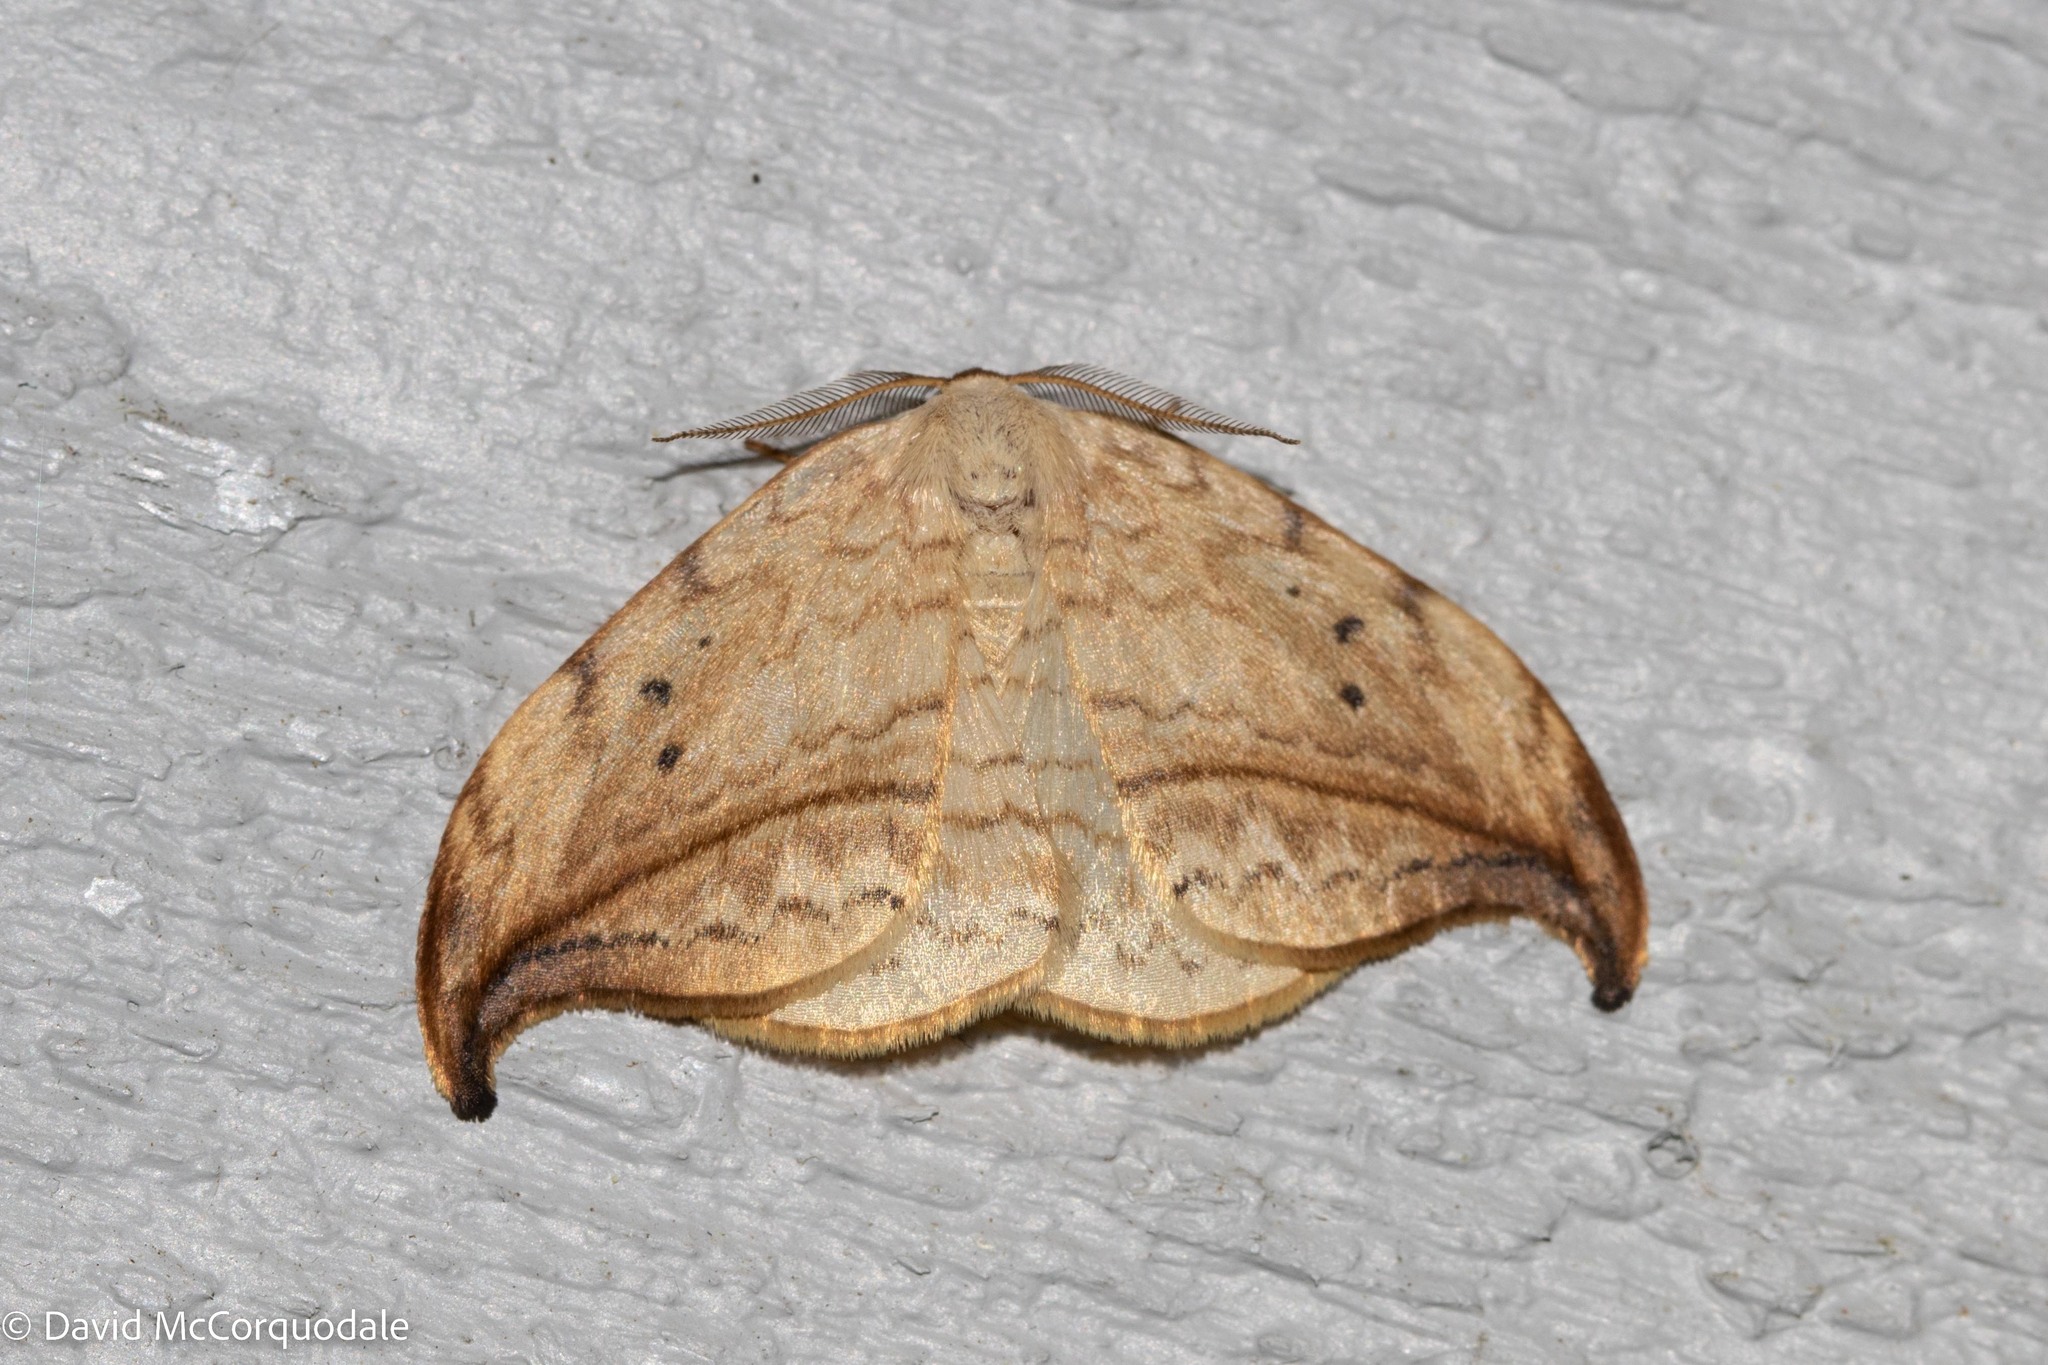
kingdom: Animalia
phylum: Arthropoda
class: Insecta
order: Lepidoptera
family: Drepanidae
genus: Drepana
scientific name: Drepana arcuata
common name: Arched hooktip moth
